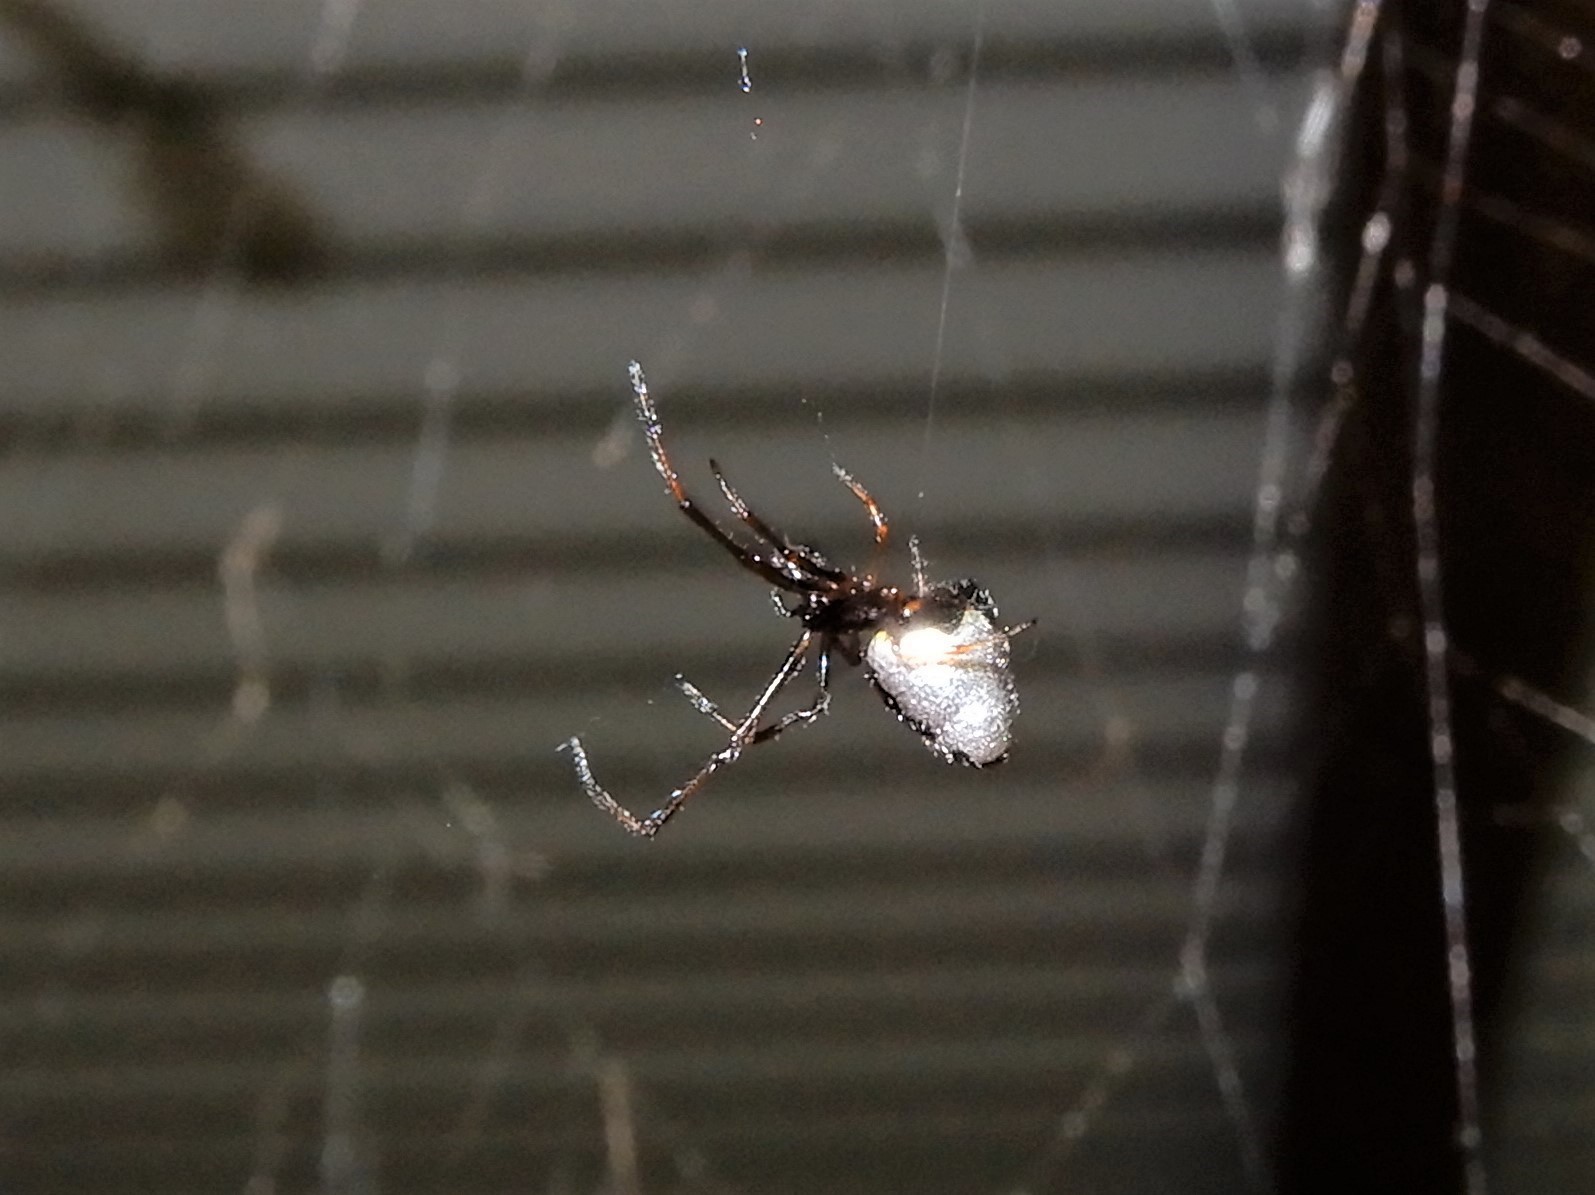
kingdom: Animalia
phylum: Arthropoda
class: Arachnida
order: Araneae
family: Theridiidae
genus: Argyrodes
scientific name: Argyrodes antipodianus
